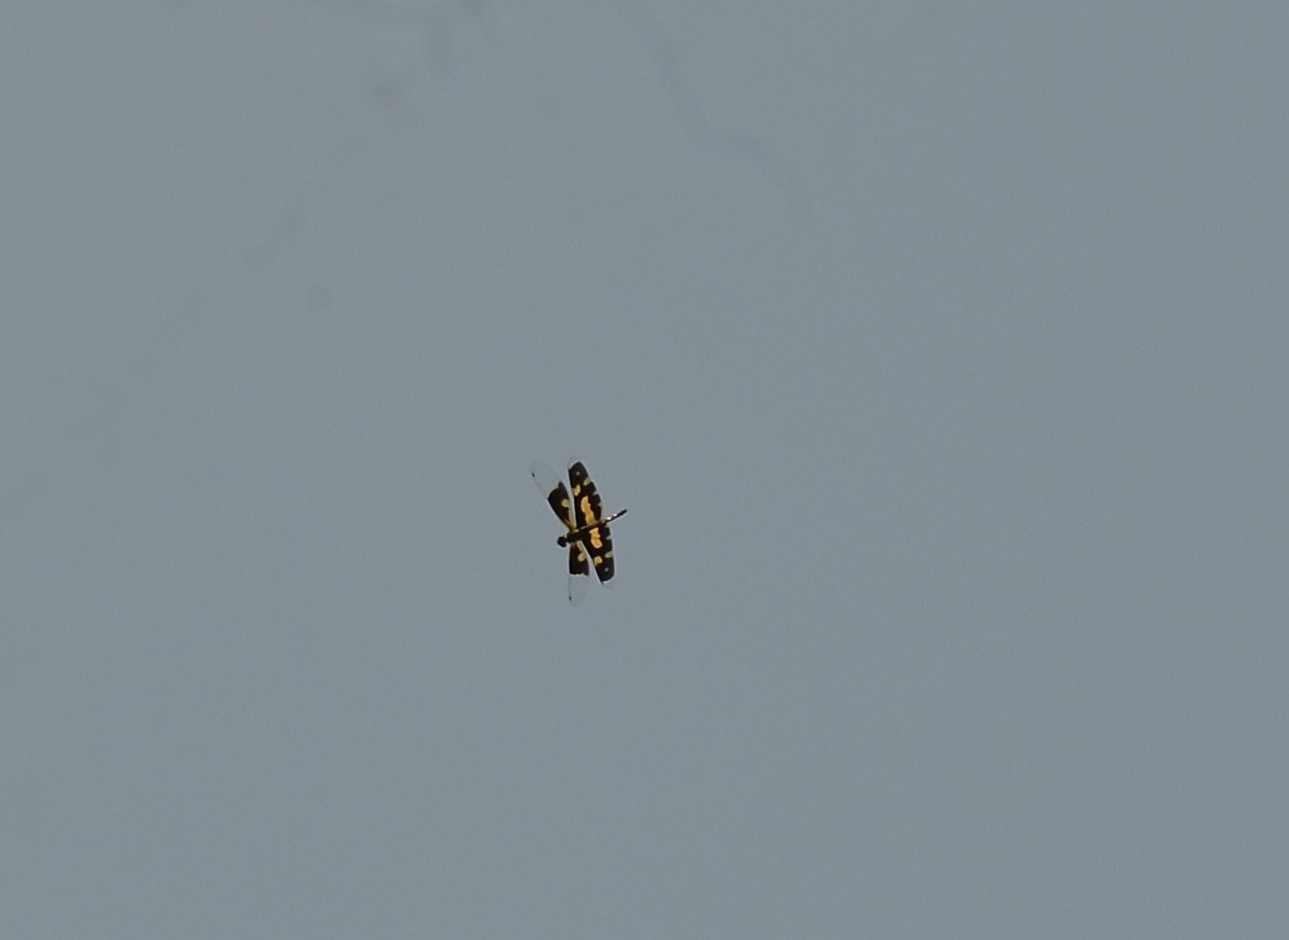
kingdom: Animalia
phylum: Arthropoda
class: Insecta
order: Odonata
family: Libellulidae
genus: Rhyothemis
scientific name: Rhyothemis variegata
